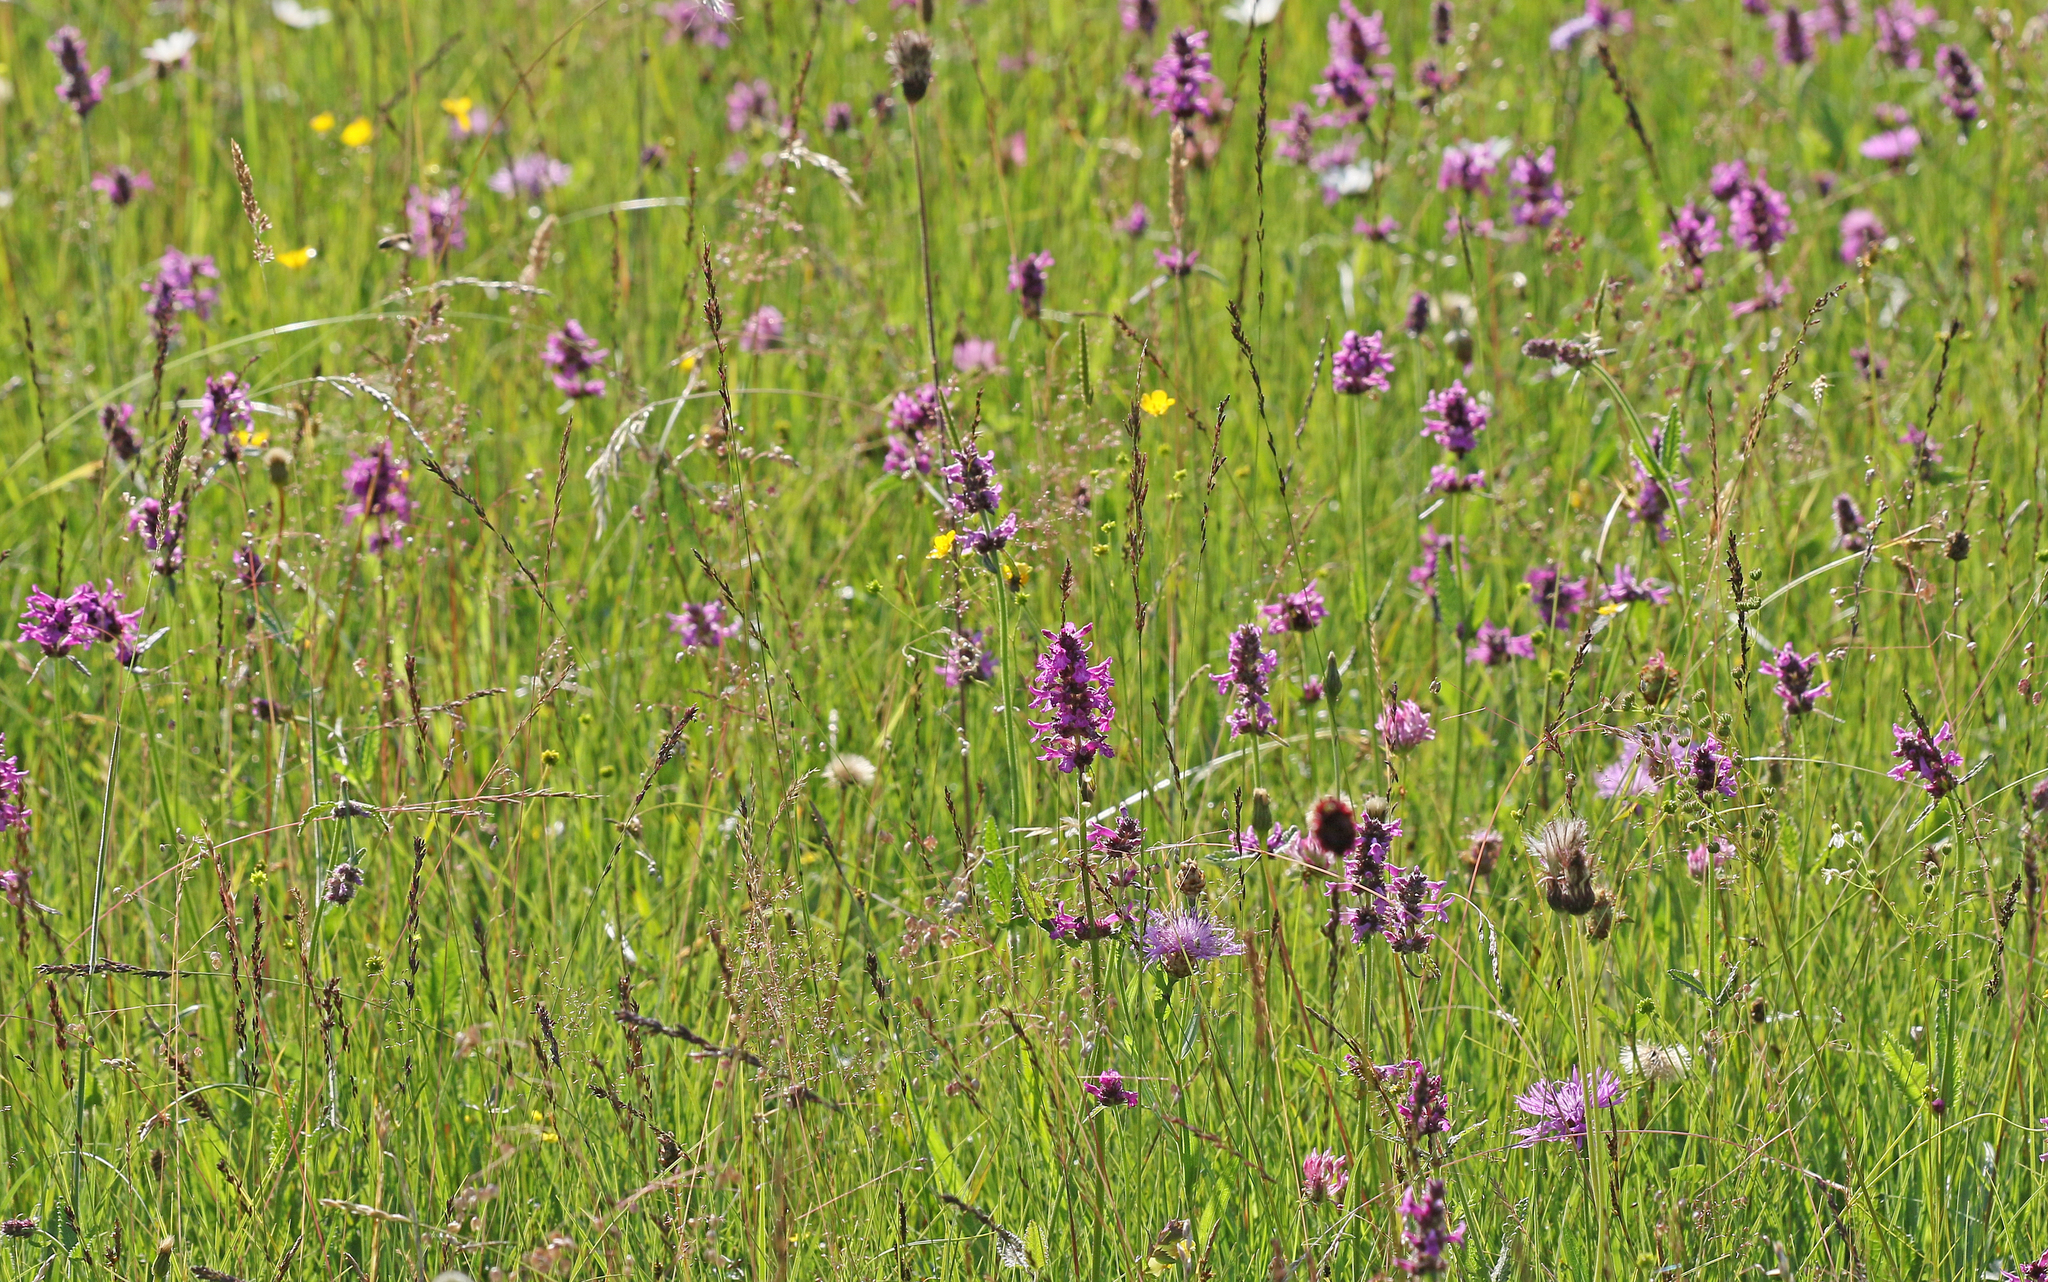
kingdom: Plantae
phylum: Tracheophyta
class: Magnoliopsida
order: Lamiales
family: Lamiaceae
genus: Betonica
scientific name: Betonica officinalis
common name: Bishop's-wort
